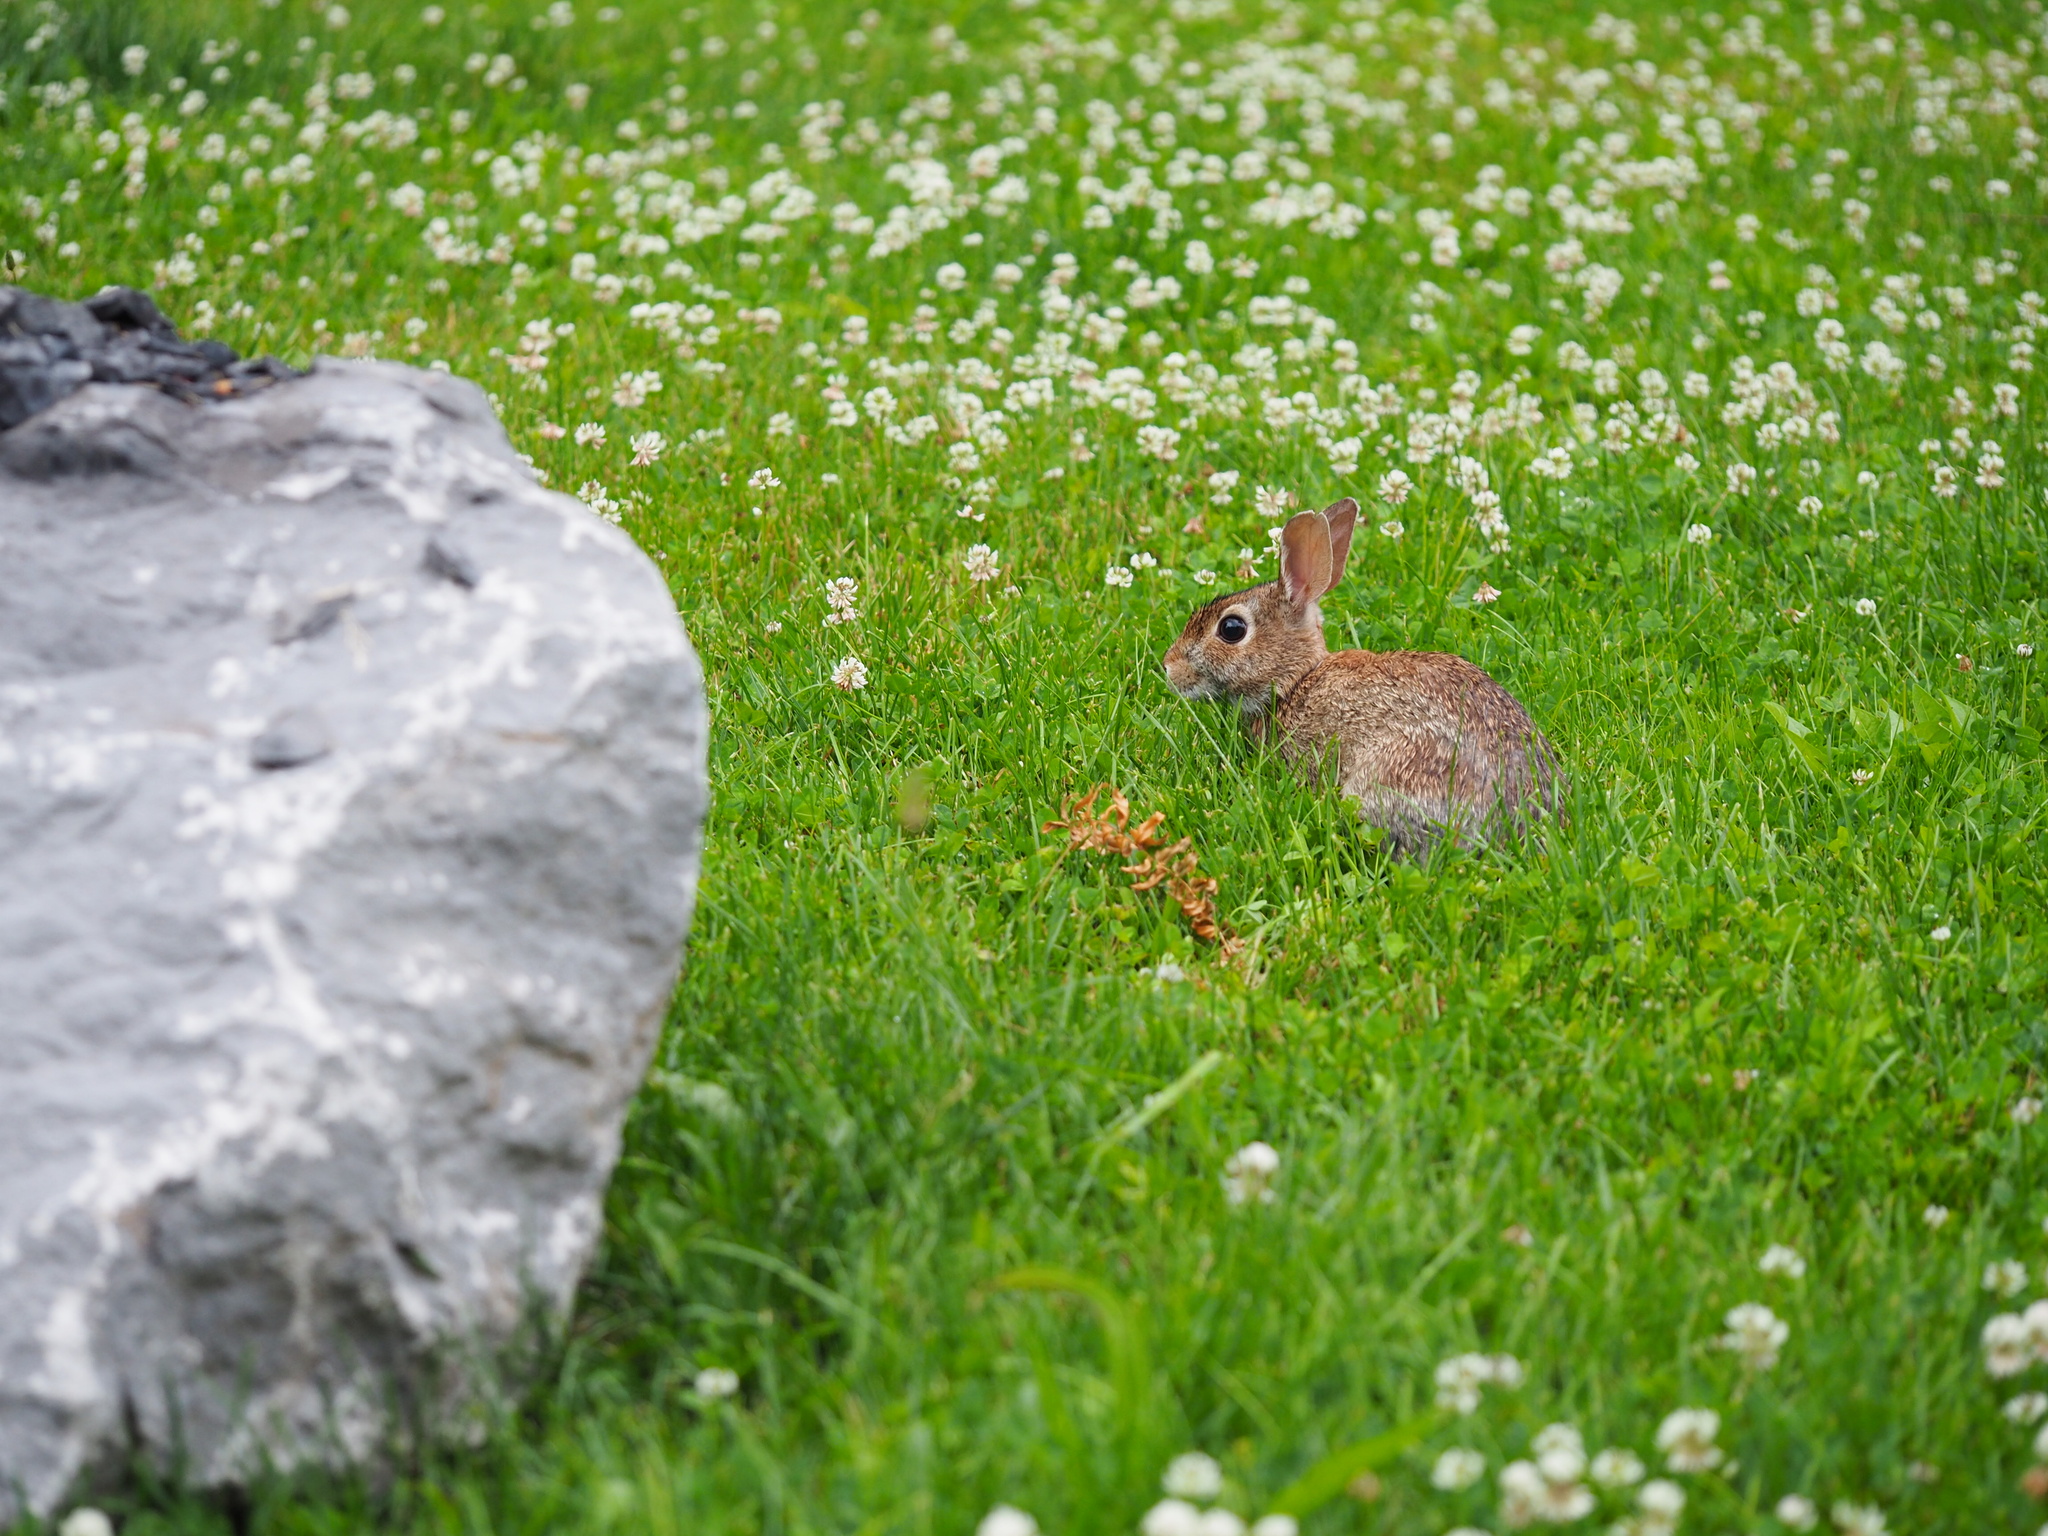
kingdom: Animalia
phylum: Chordata
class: Mammalia
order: Lagomorpha
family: Leporidae
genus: Sylvilagus
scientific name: Sylvilagus floridanus
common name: Eastern cottontail
